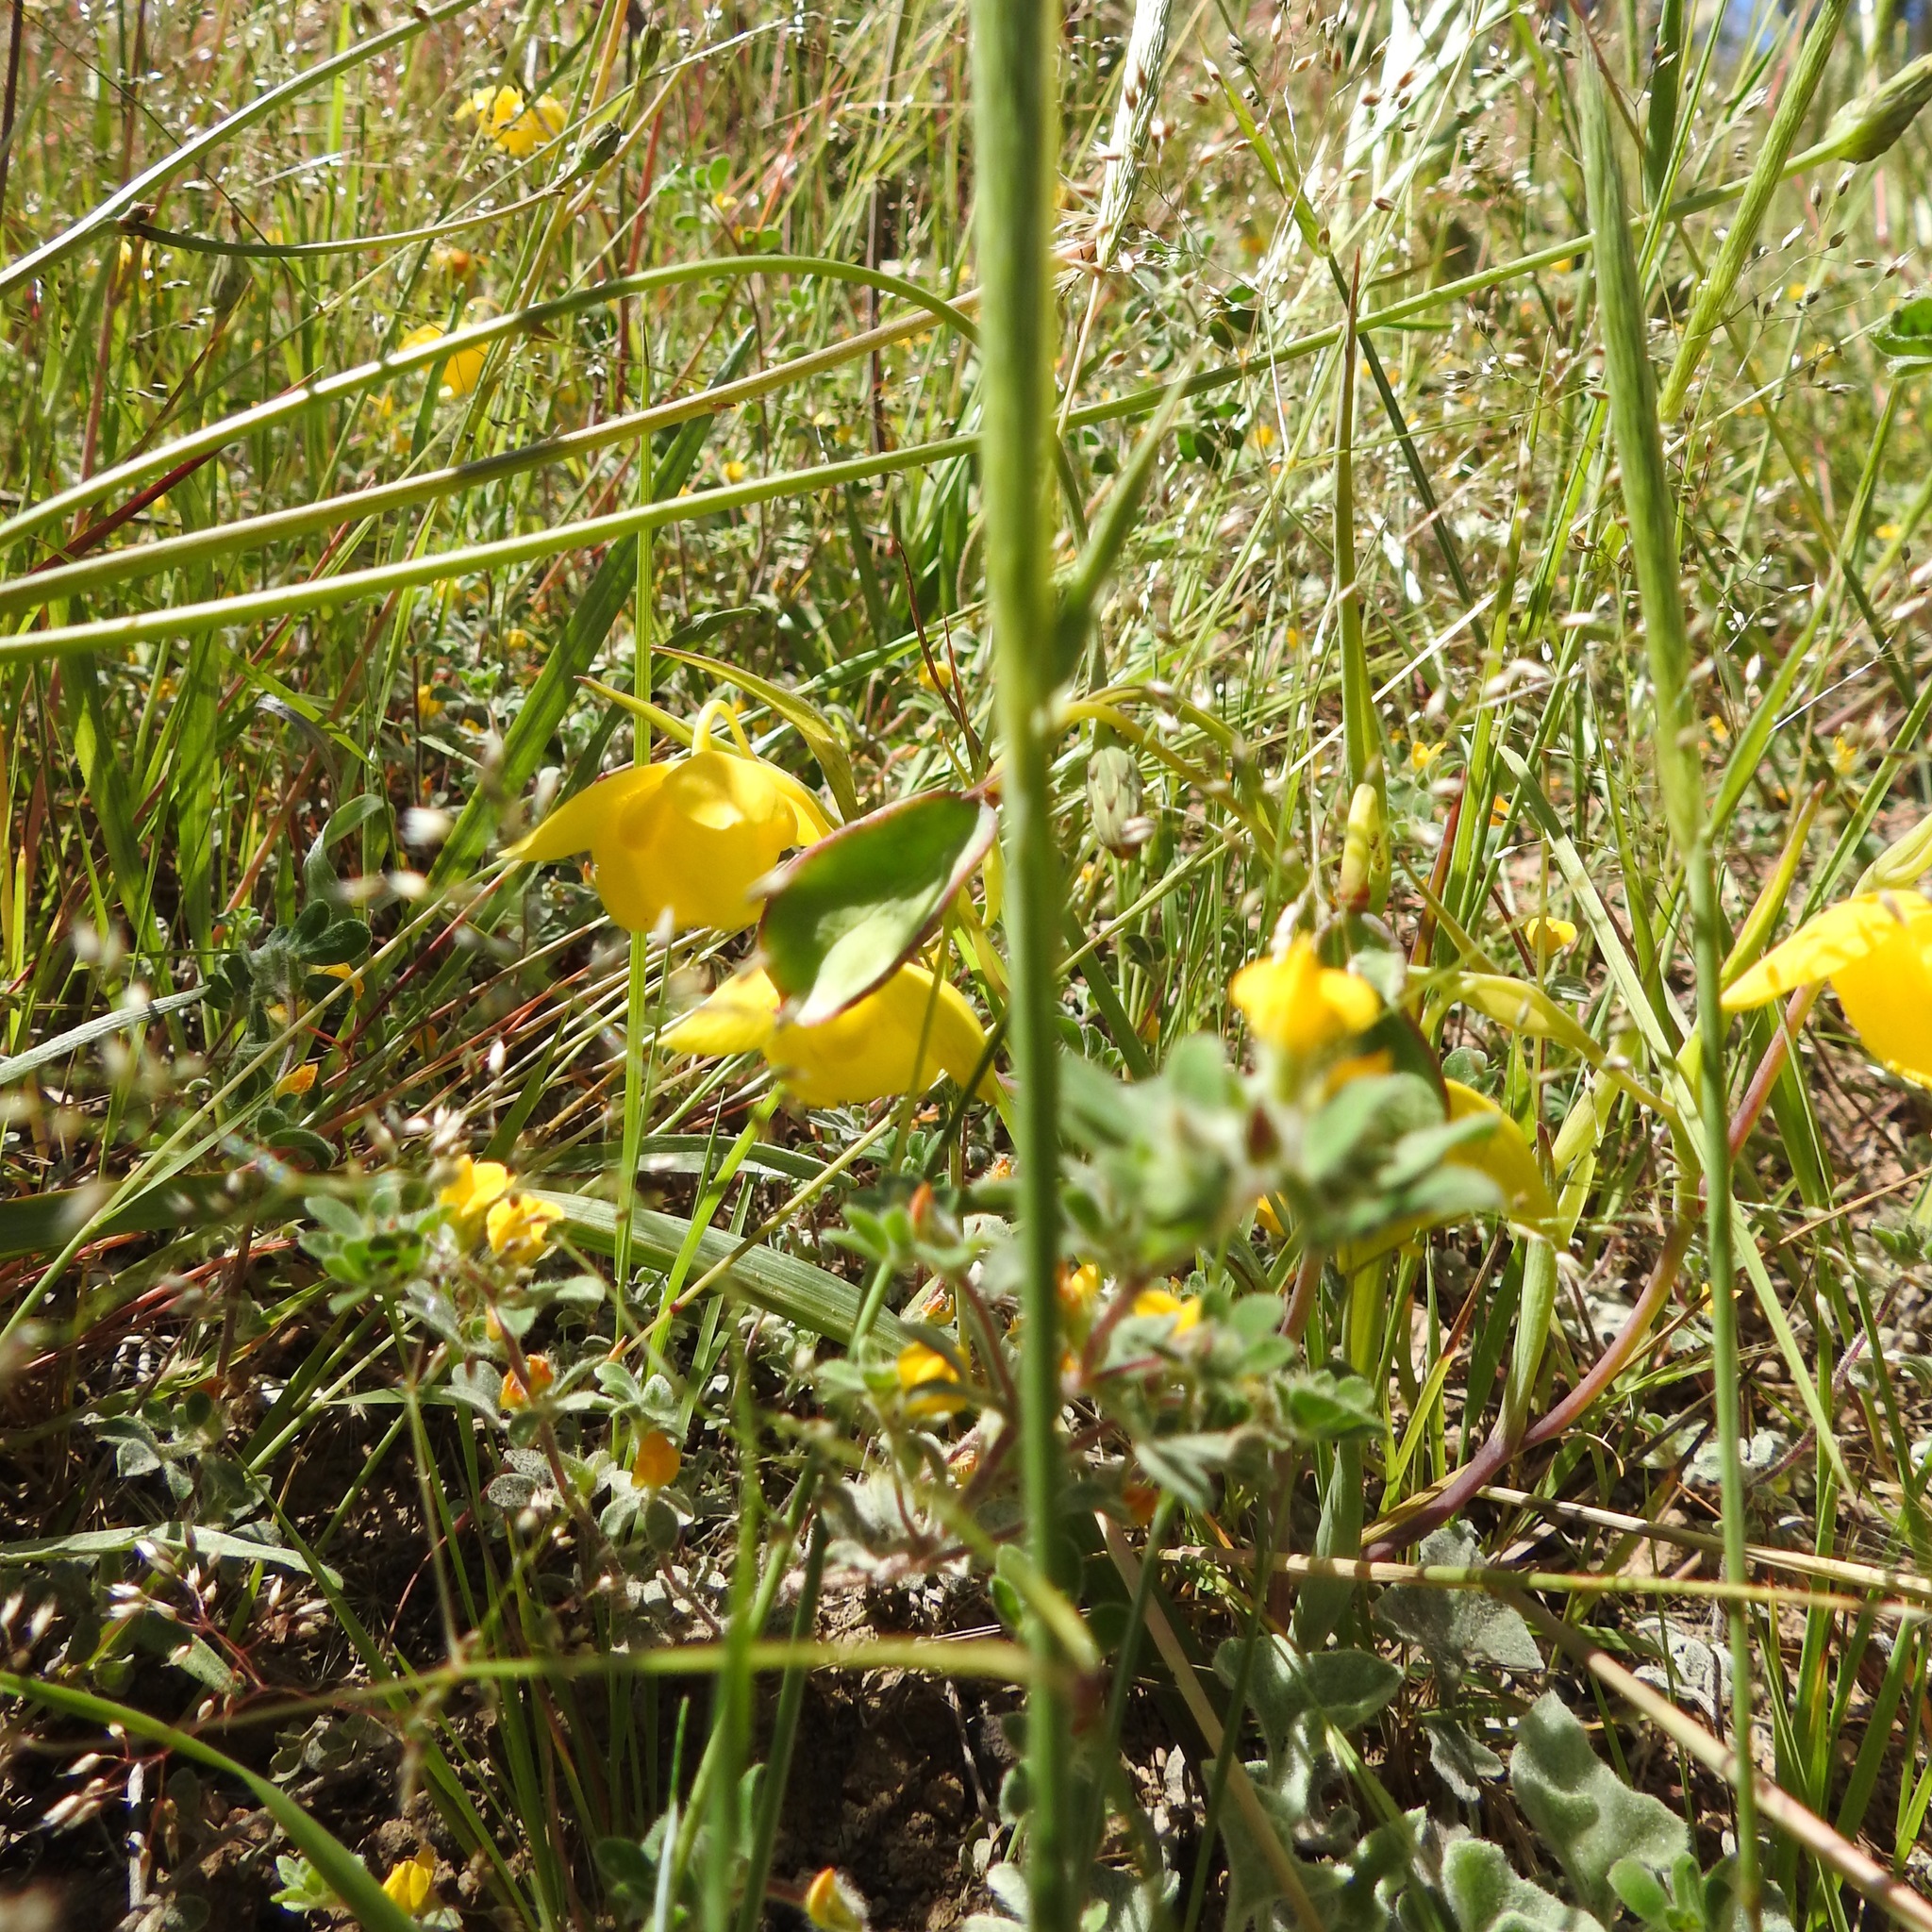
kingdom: Plantae
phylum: Tracheophyta
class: Liliopsida
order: Liliales
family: Liliaceae
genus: Calochortus
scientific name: Calochortus amabilis
